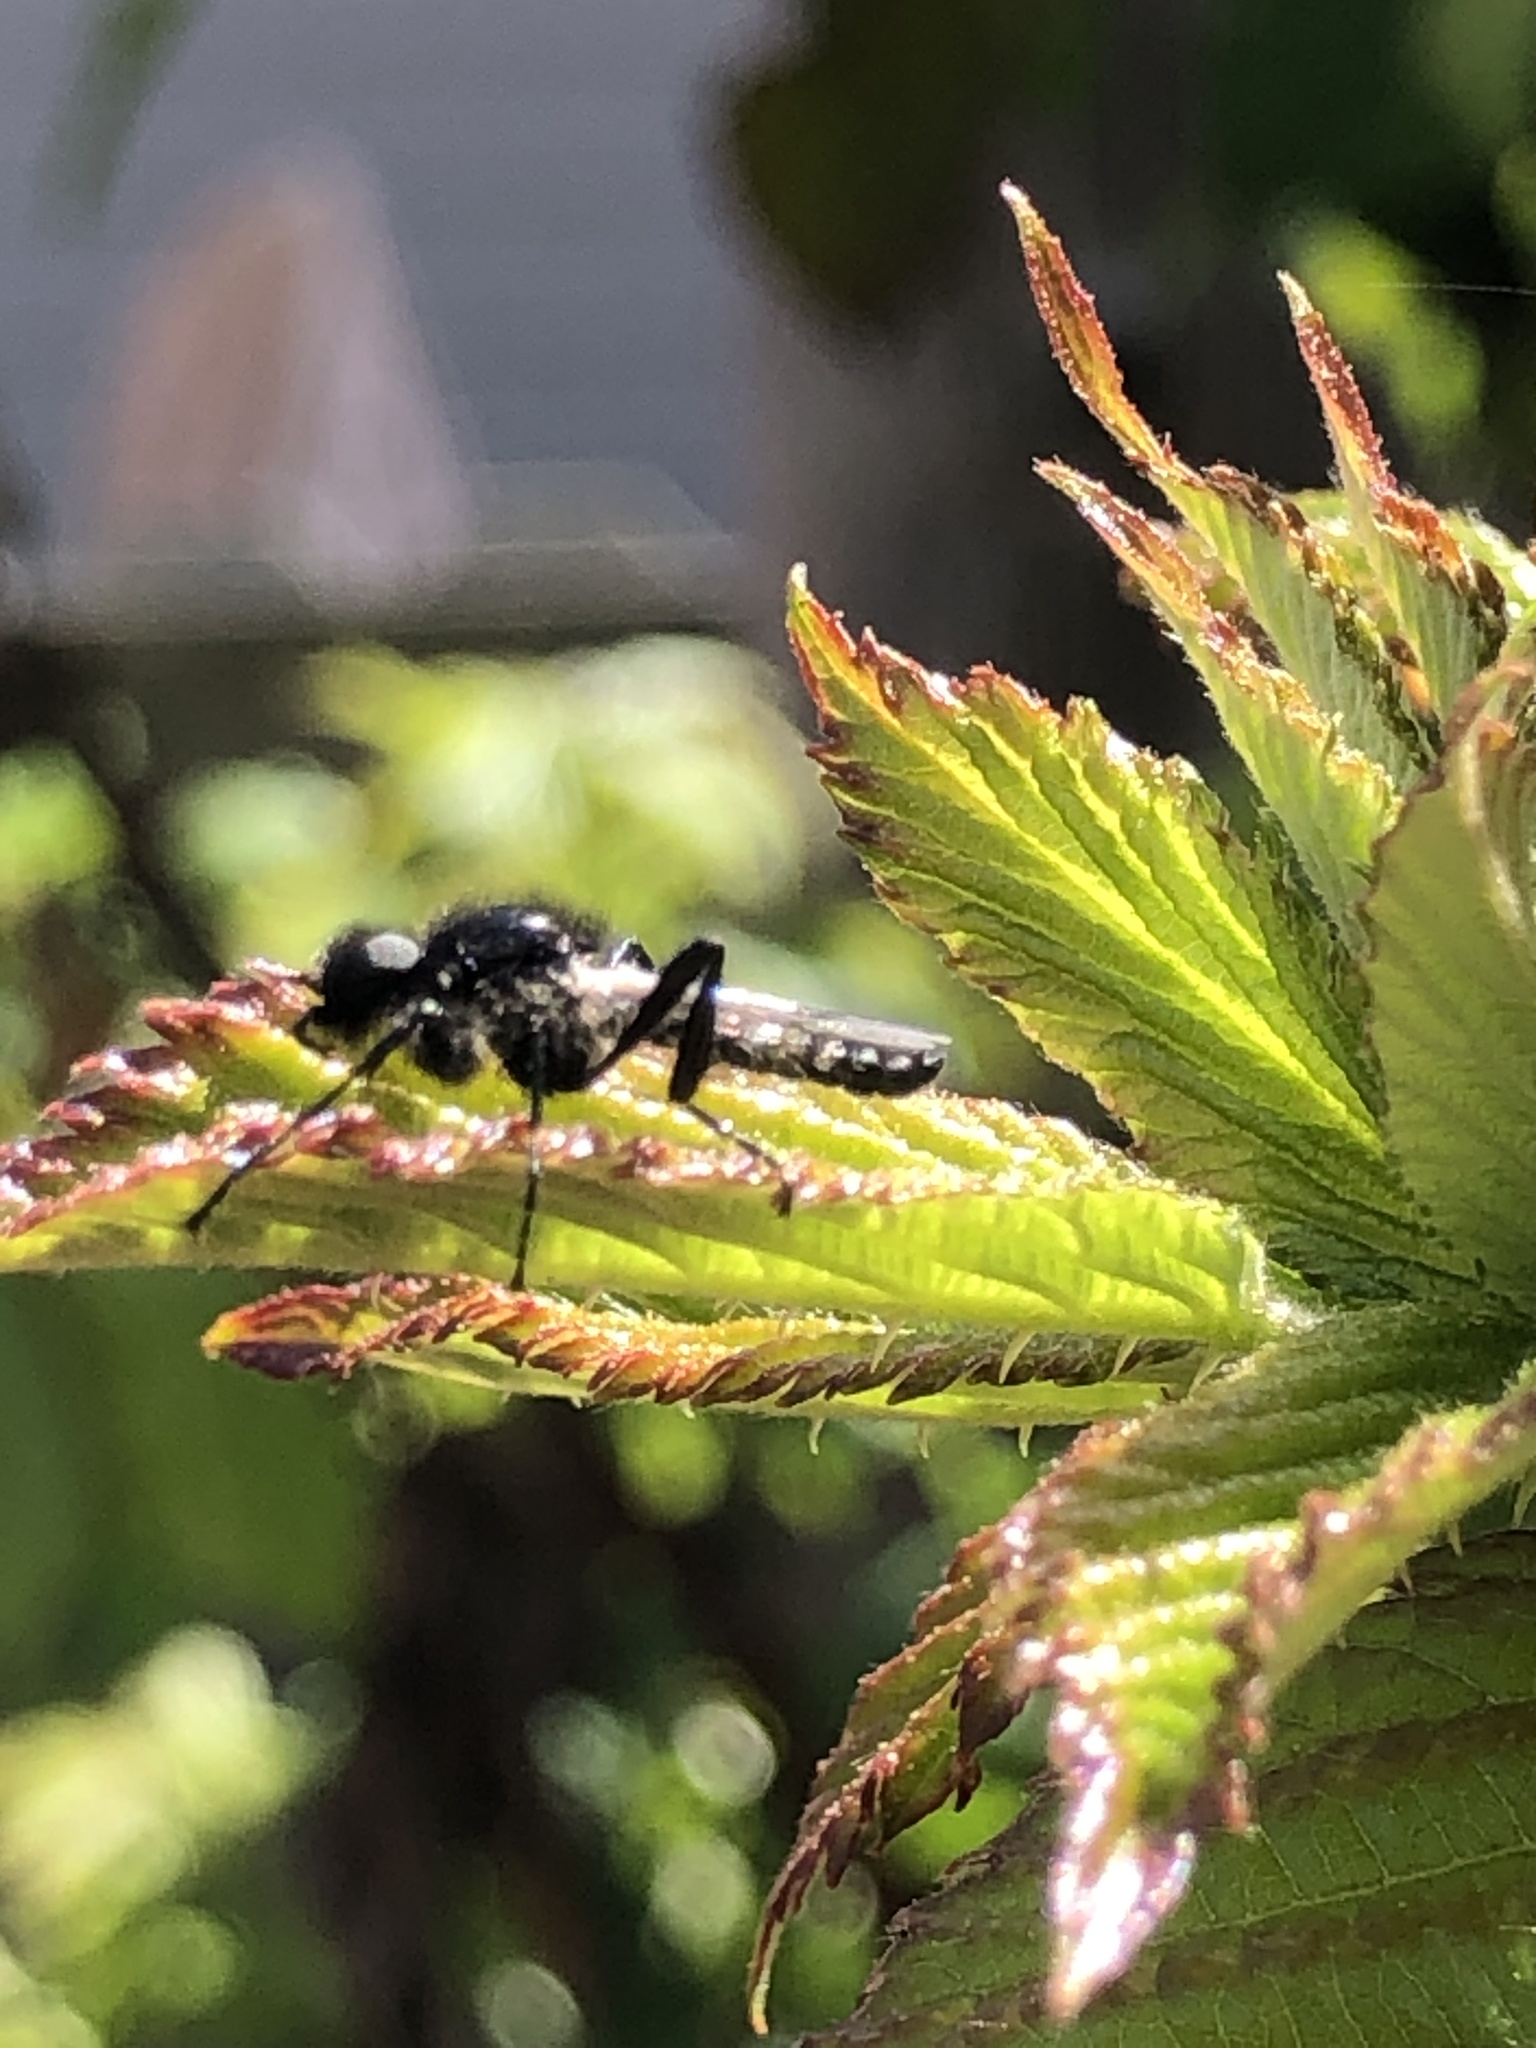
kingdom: Animalia
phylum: Arthropoda
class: Insecta
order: Diptera
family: Bibionidae
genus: Bibio
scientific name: Bibio albipennis
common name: White-winged march fly
